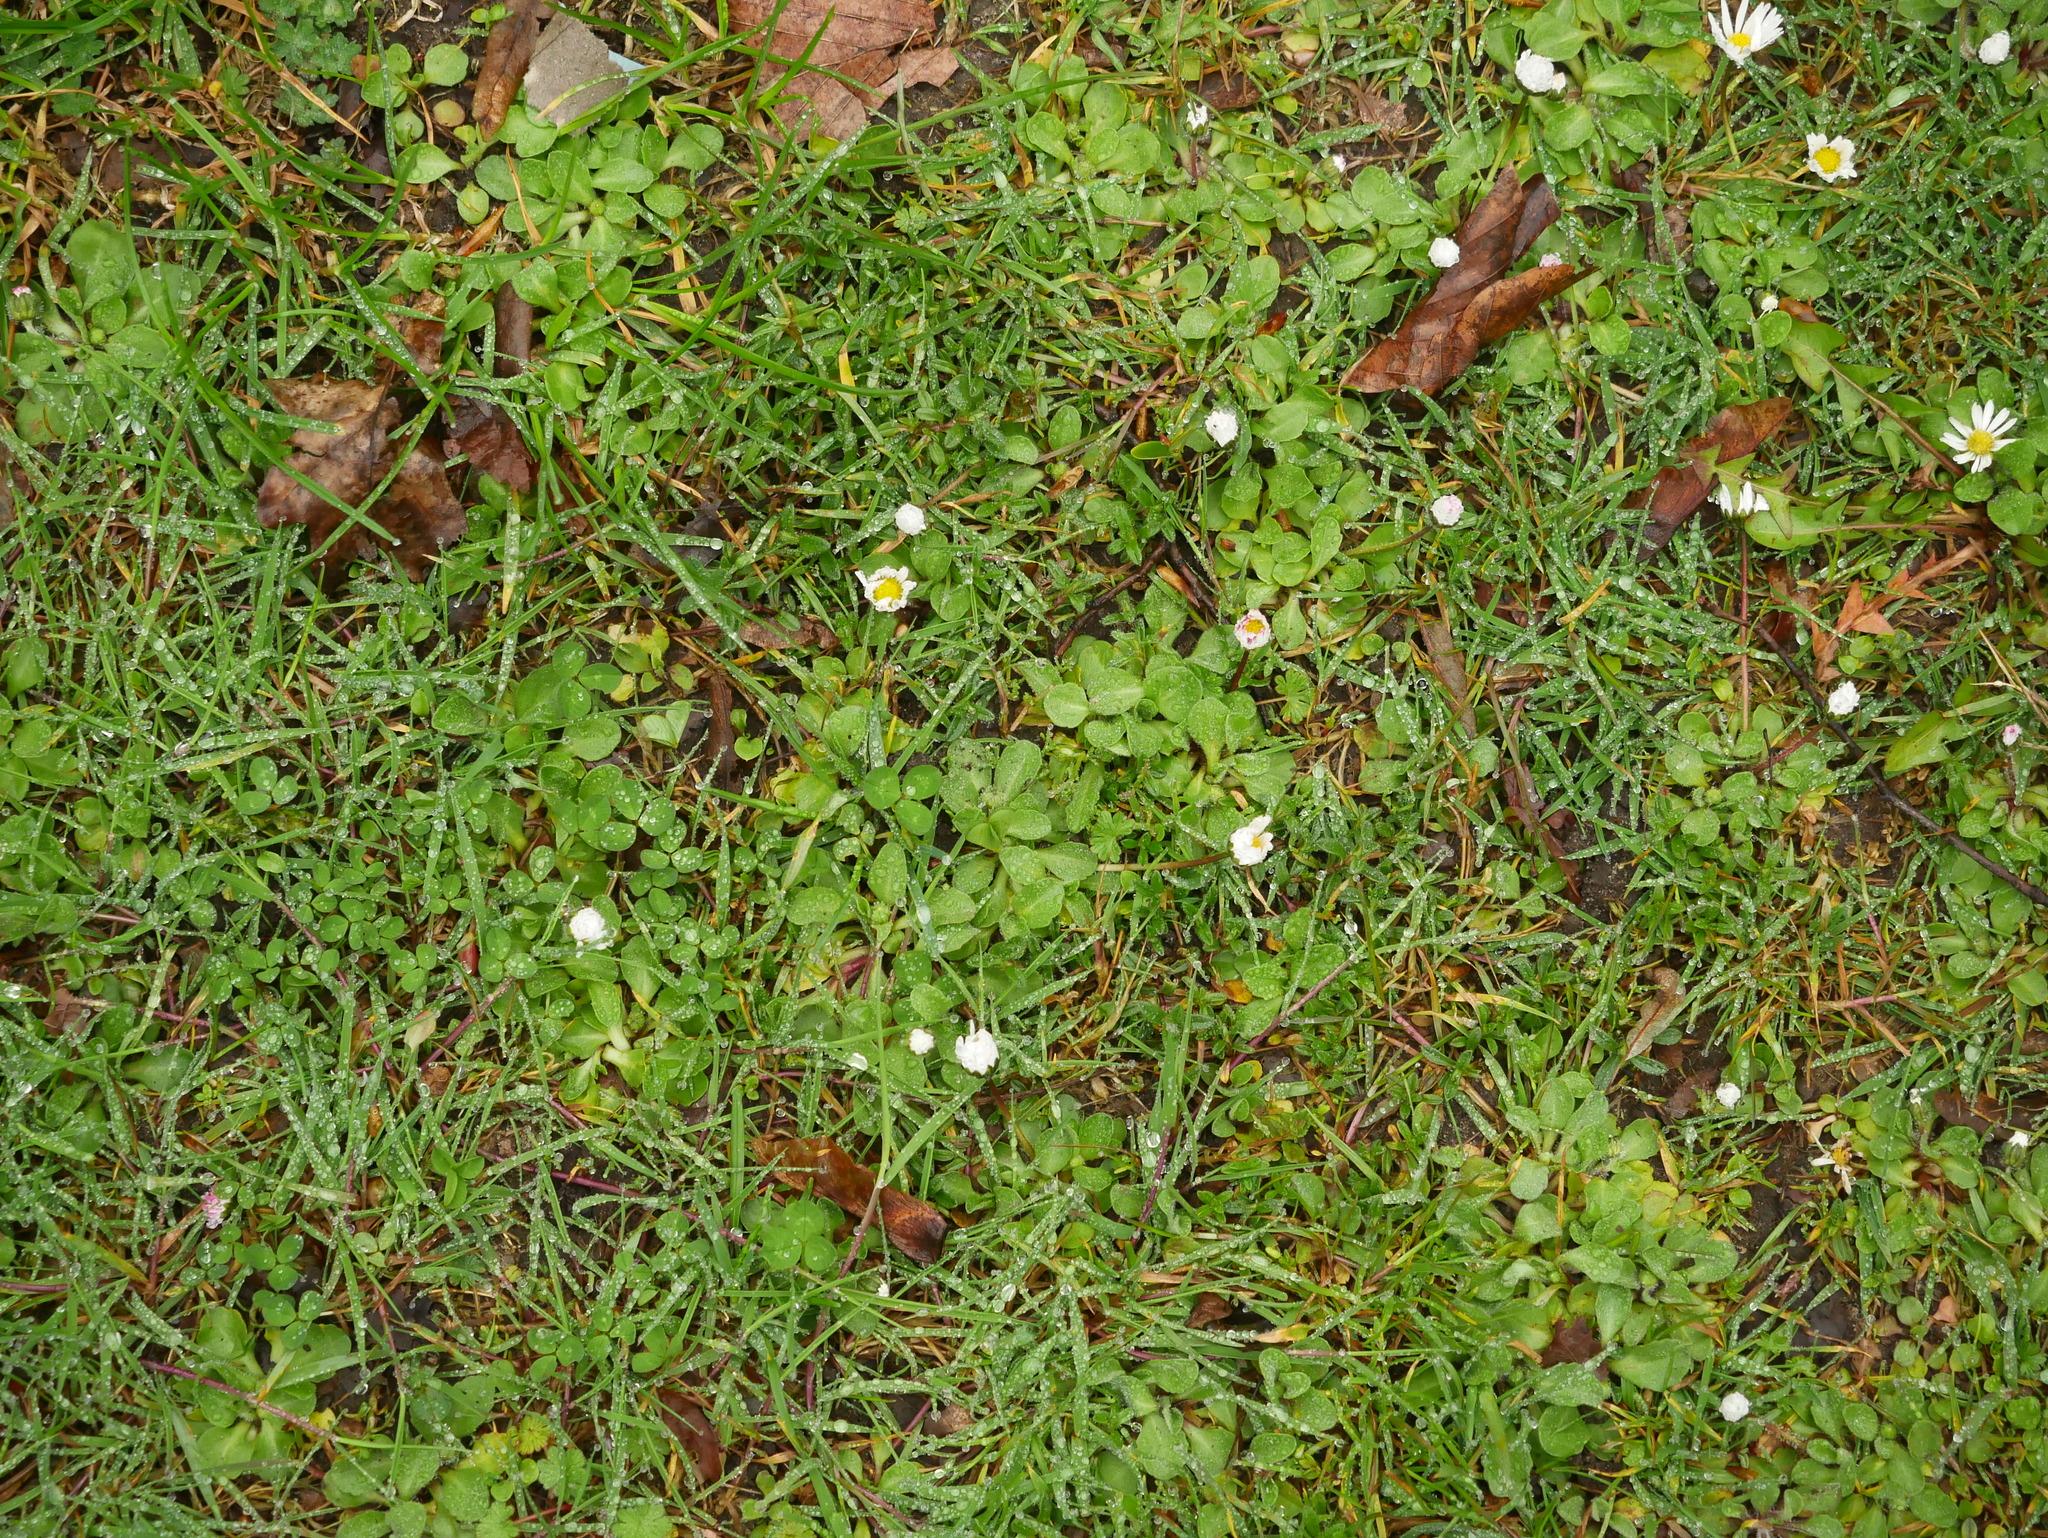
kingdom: Plantae
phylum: Tracheophyta
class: Magnoliopsida
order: Asterales
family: Asteraceae
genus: Bellis
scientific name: Bellis perennis
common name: Lawndaisy
